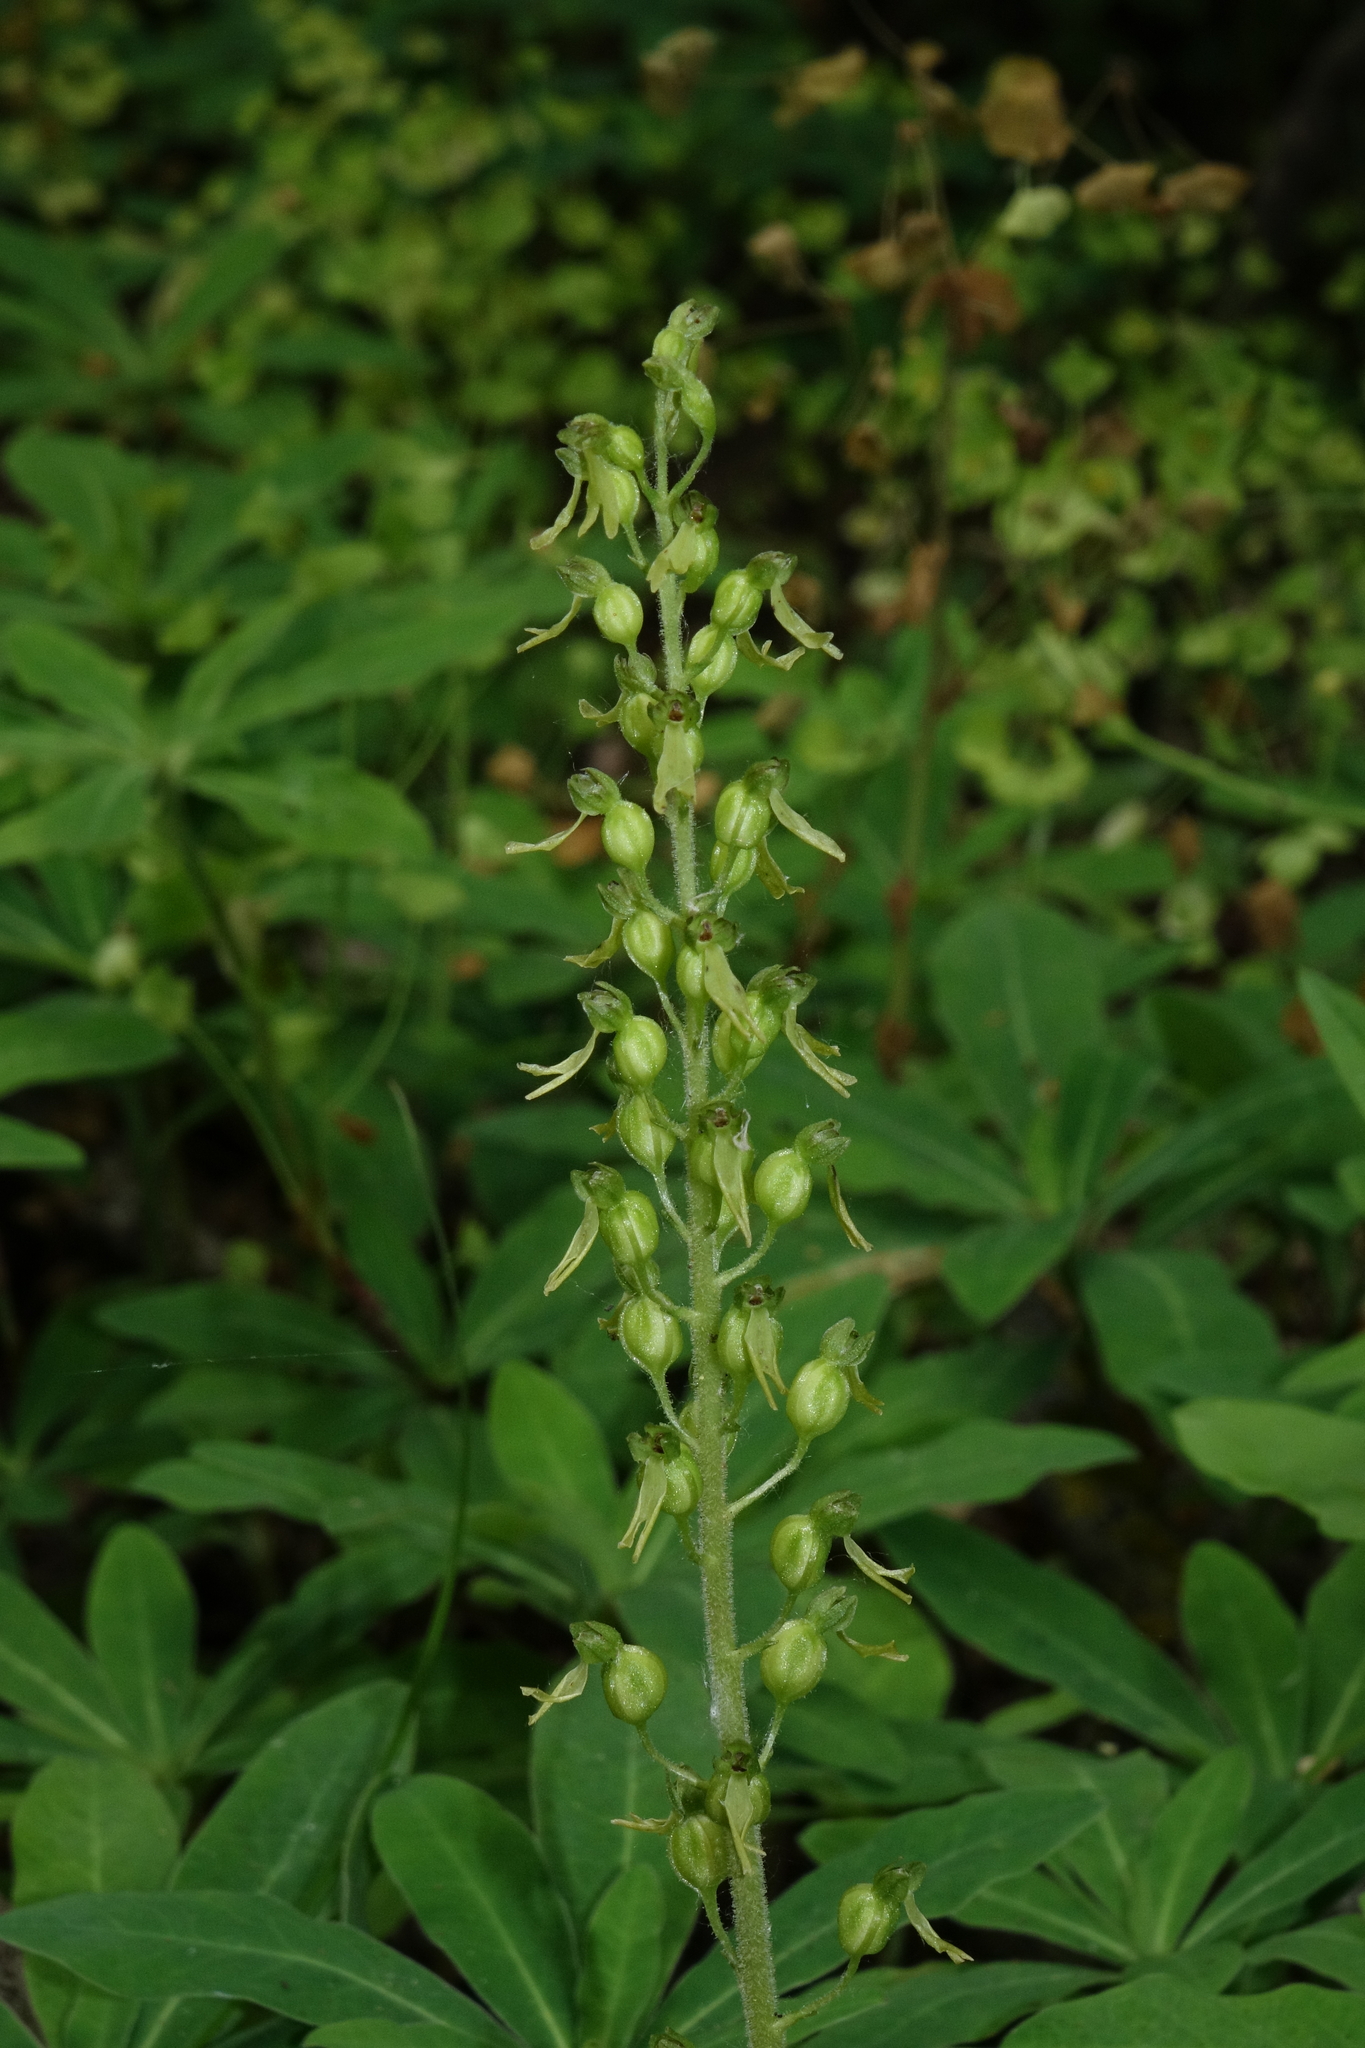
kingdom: Plantae
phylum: Tracheophyta
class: Liliopsida
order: Asparagales
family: Orchidaceae
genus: Neottia
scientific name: Neottia ovata
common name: Common twayblade
